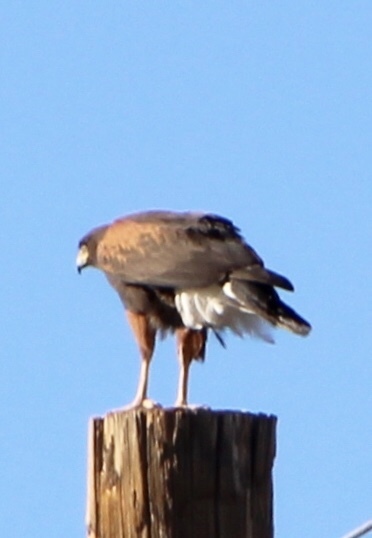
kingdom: Animalia
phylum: Chordata
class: Aves
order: Accipitriformes
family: Accipitridae
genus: Parabuteo
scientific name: Parabuteo unicinctus
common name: Harris's hawk
